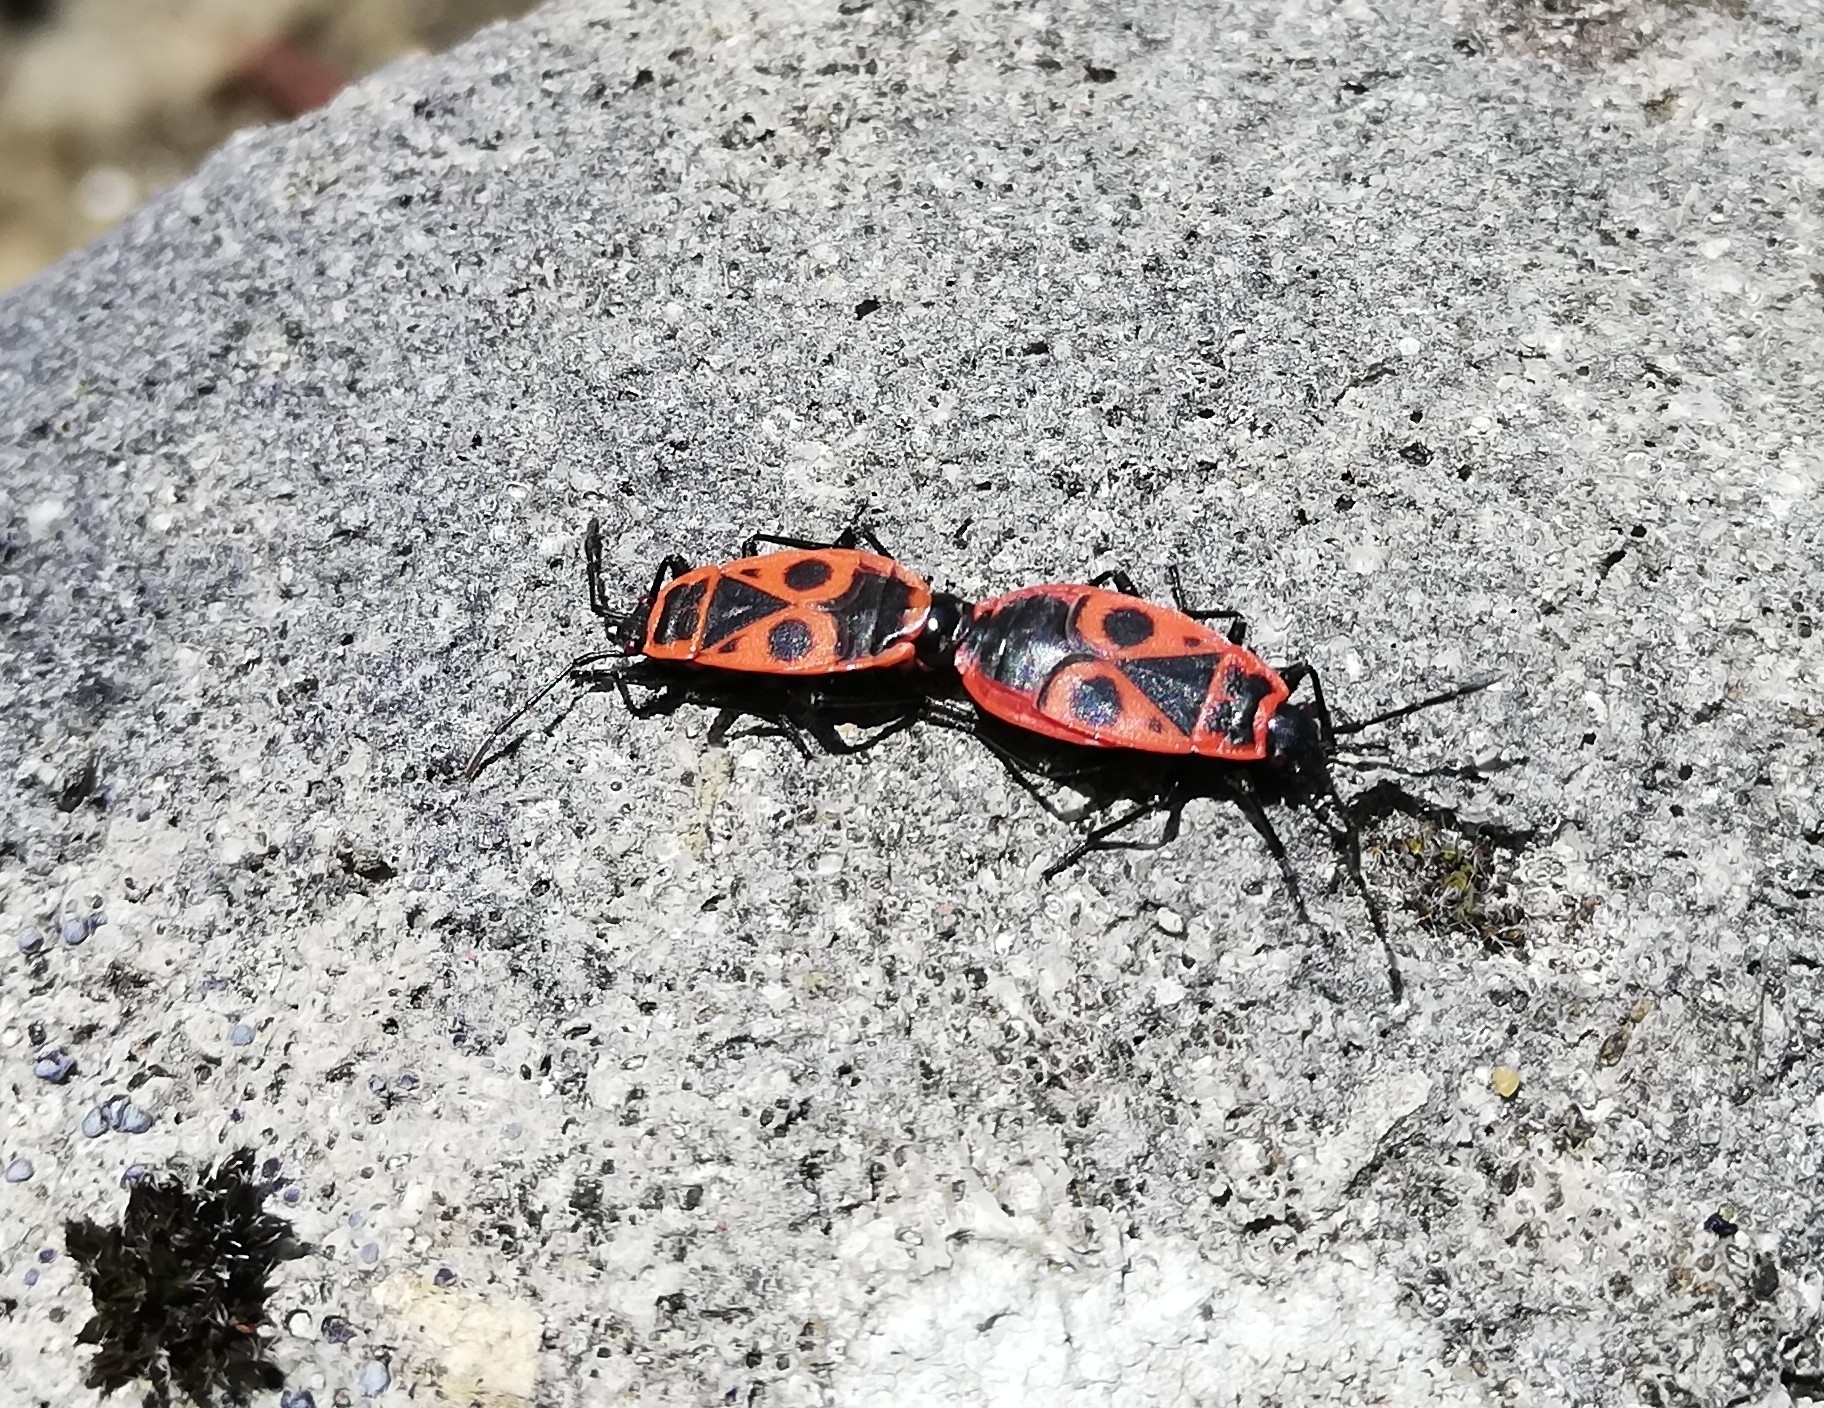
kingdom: Animalia
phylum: Arthropoda
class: Insecta
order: Hemiptera
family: Pyrrhocoridae
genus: Pyrrhocoris
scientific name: Pyrrhocoris apterus
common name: Firebug
